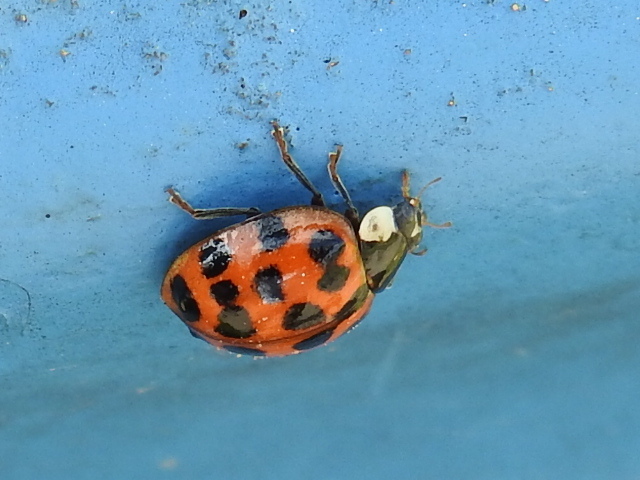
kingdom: Animalia
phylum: Arthropoda
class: Insecta
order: Coleoptera
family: Coccinellidae
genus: Harmonia
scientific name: Harmonia axyridis
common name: Harlequin ladybird
